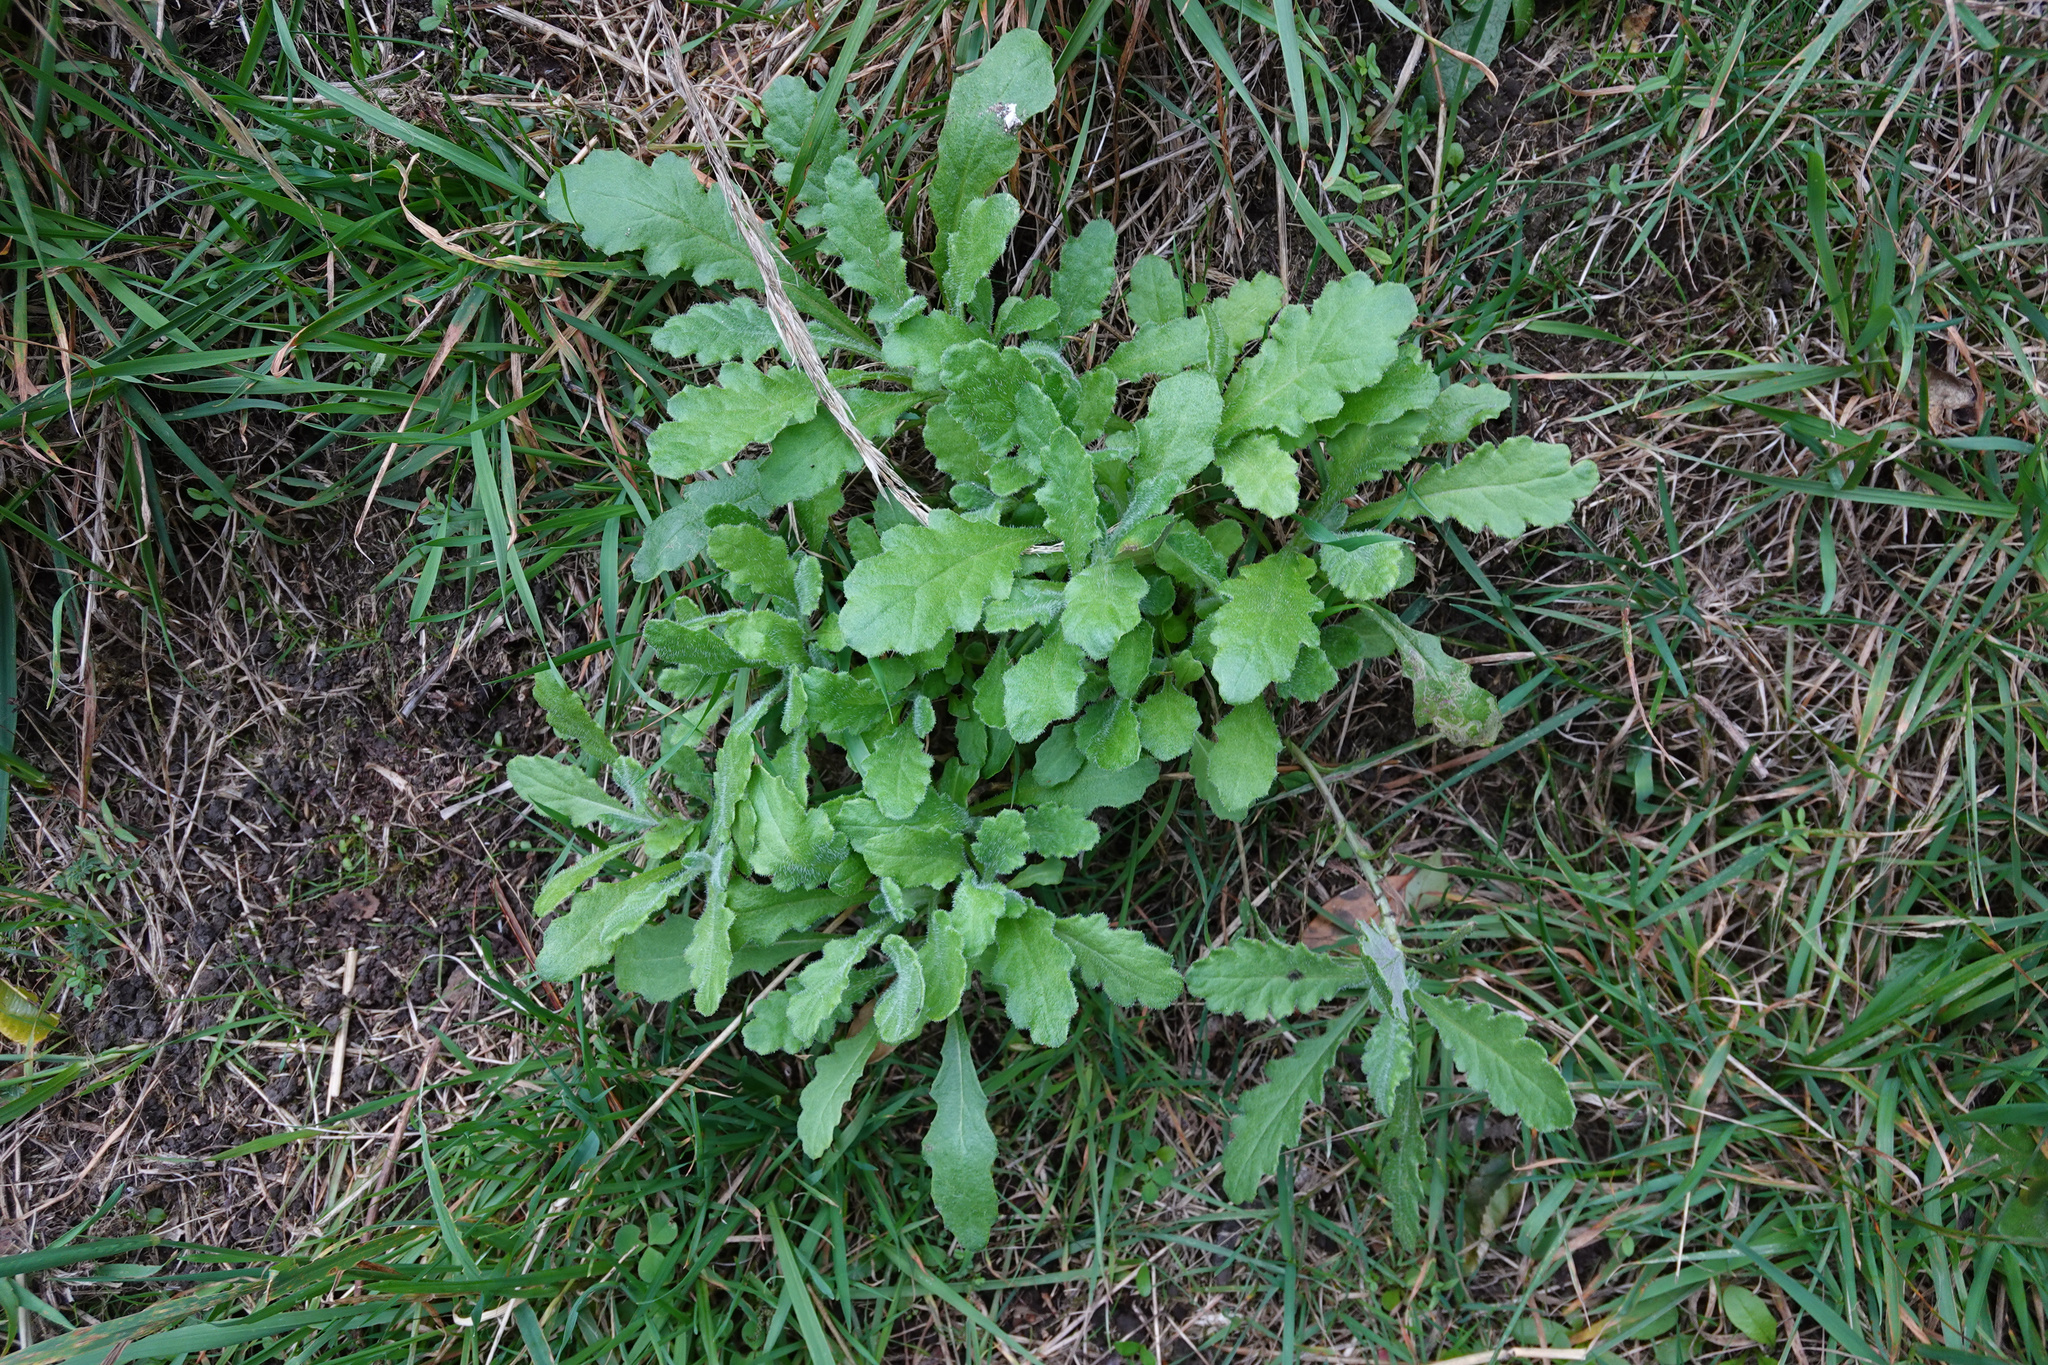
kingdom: Plantae
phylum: Tracheophyta
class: Magnoliopsida
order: Asterales
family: Asteraceae
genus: Senecio
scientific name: Senecio glomeratus
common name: Cutleaf burnweed
